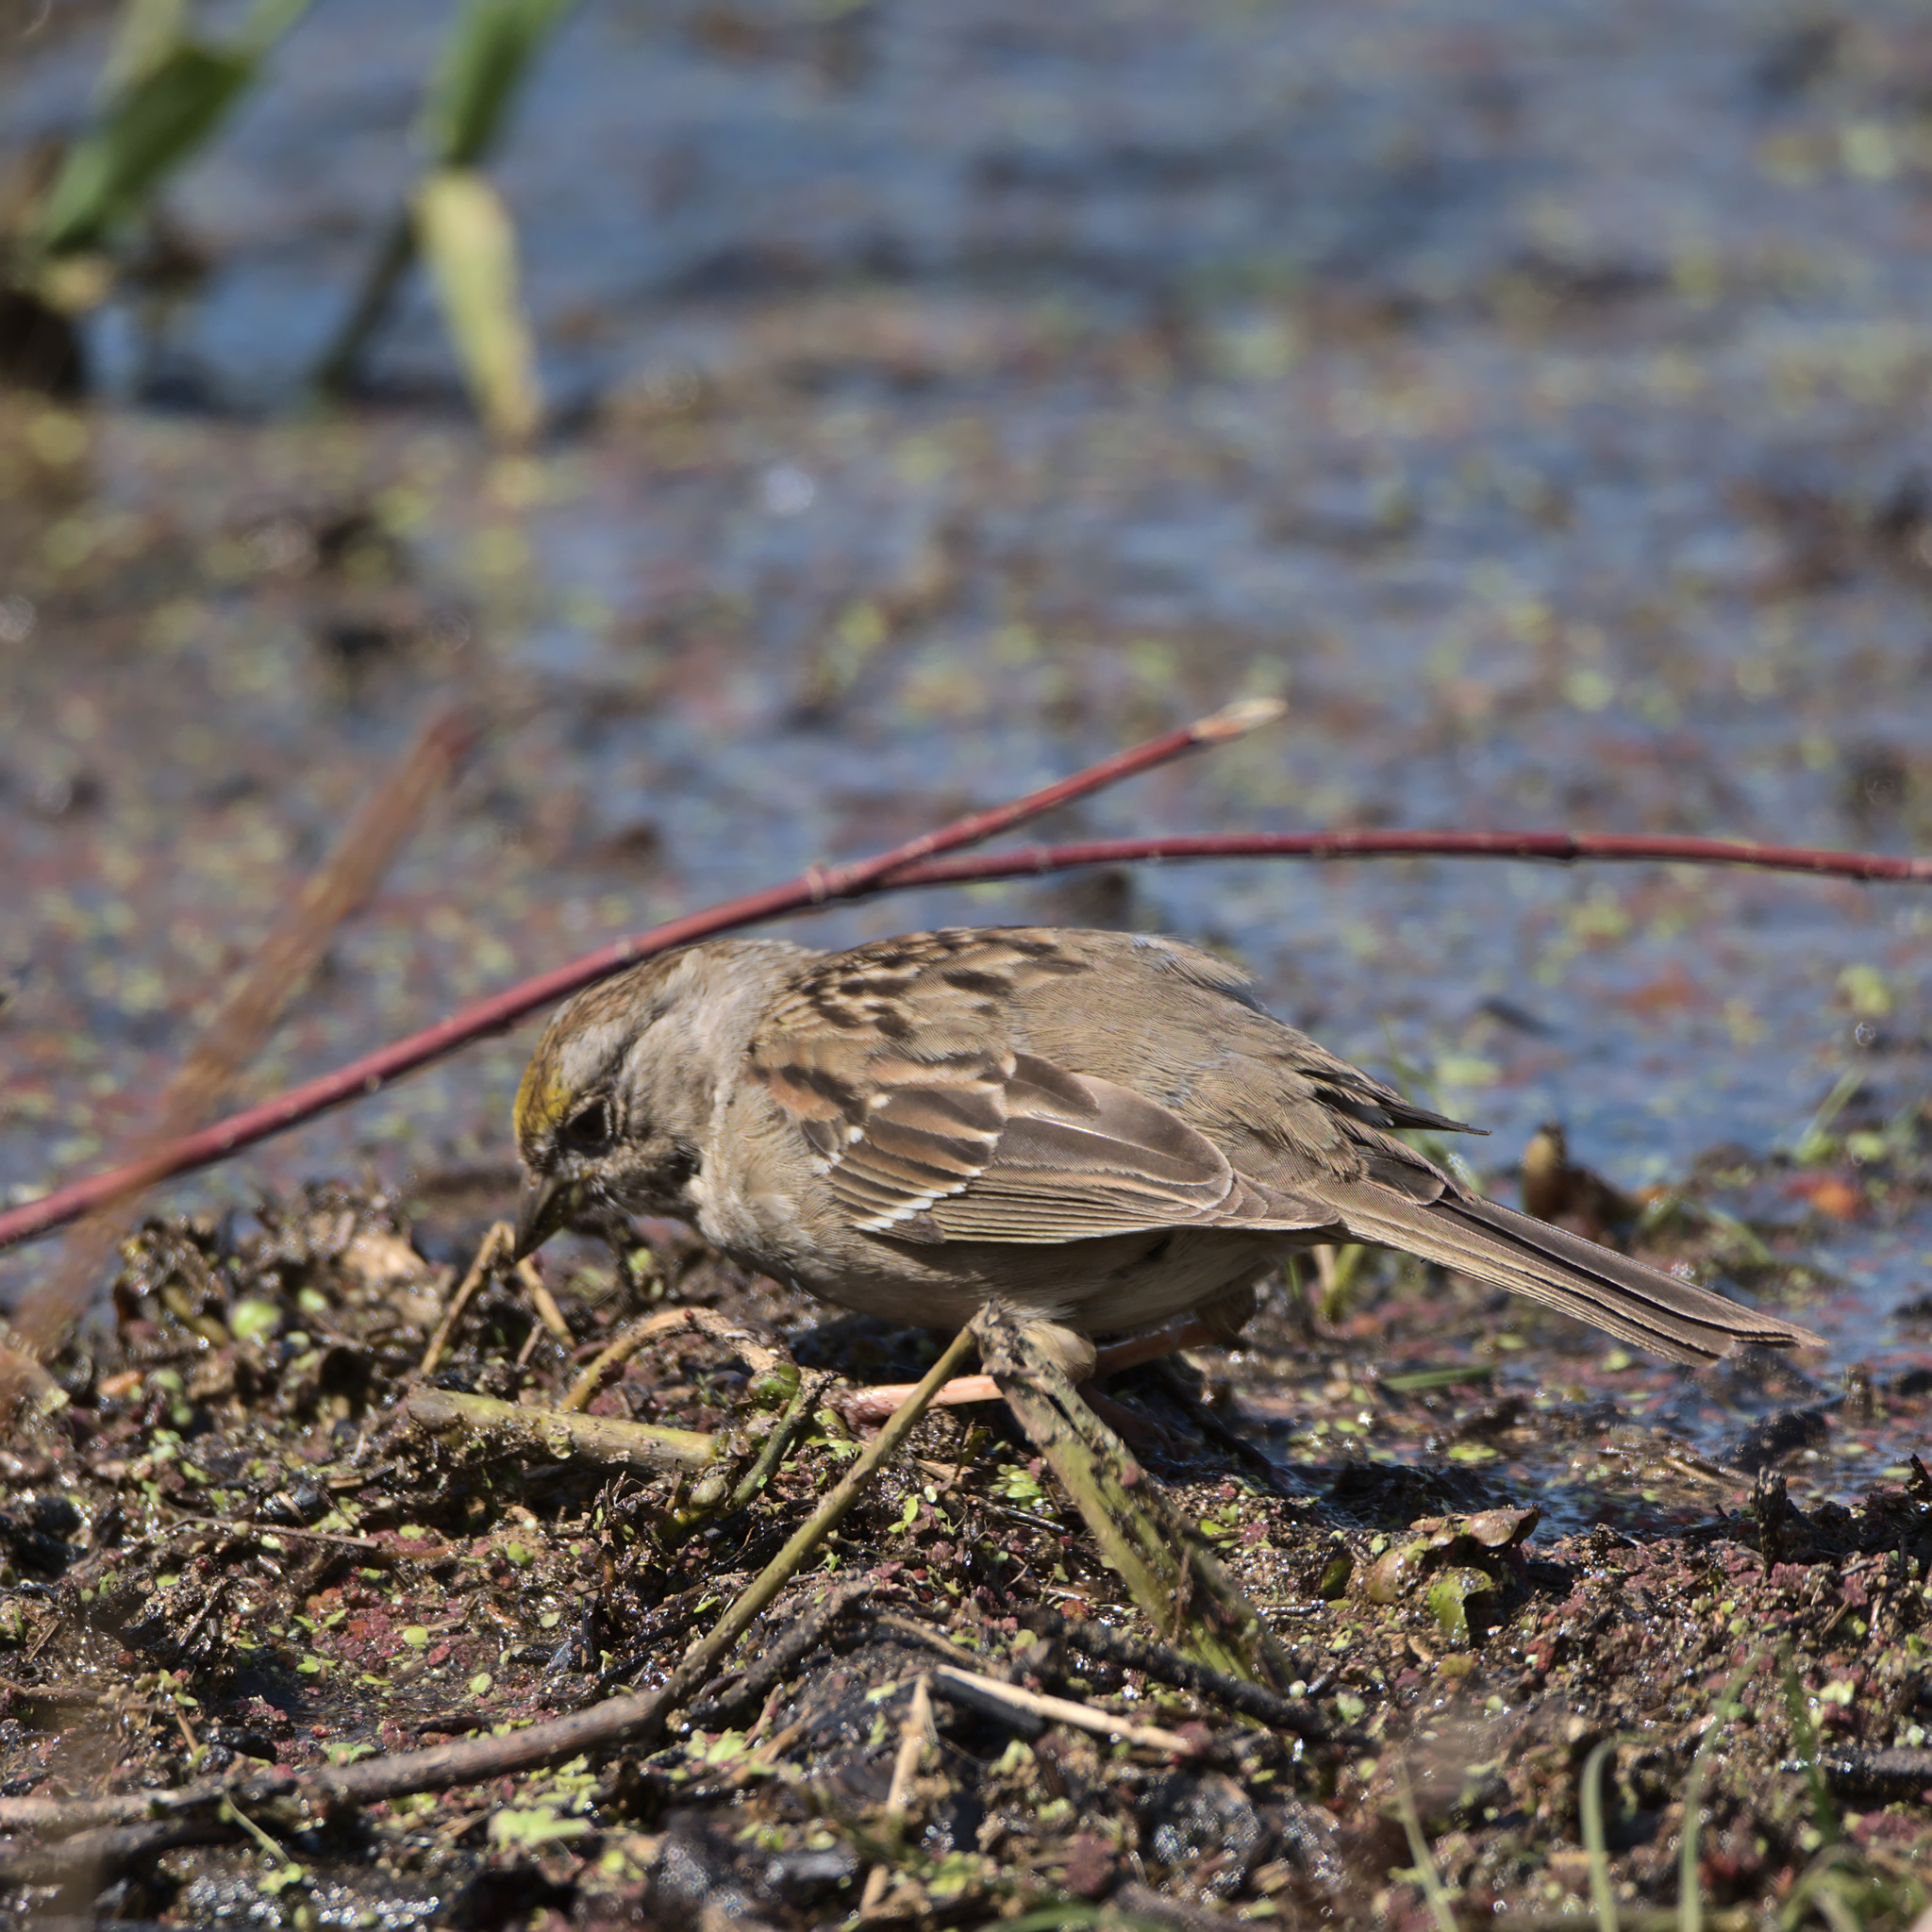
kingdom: Animalia
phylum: Chordata
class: Aves
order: Passeriformes
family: Passerellidae
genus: Zonotrichia
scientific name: Zonotrichia atricapilla
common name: Golden-crowned sparrow
